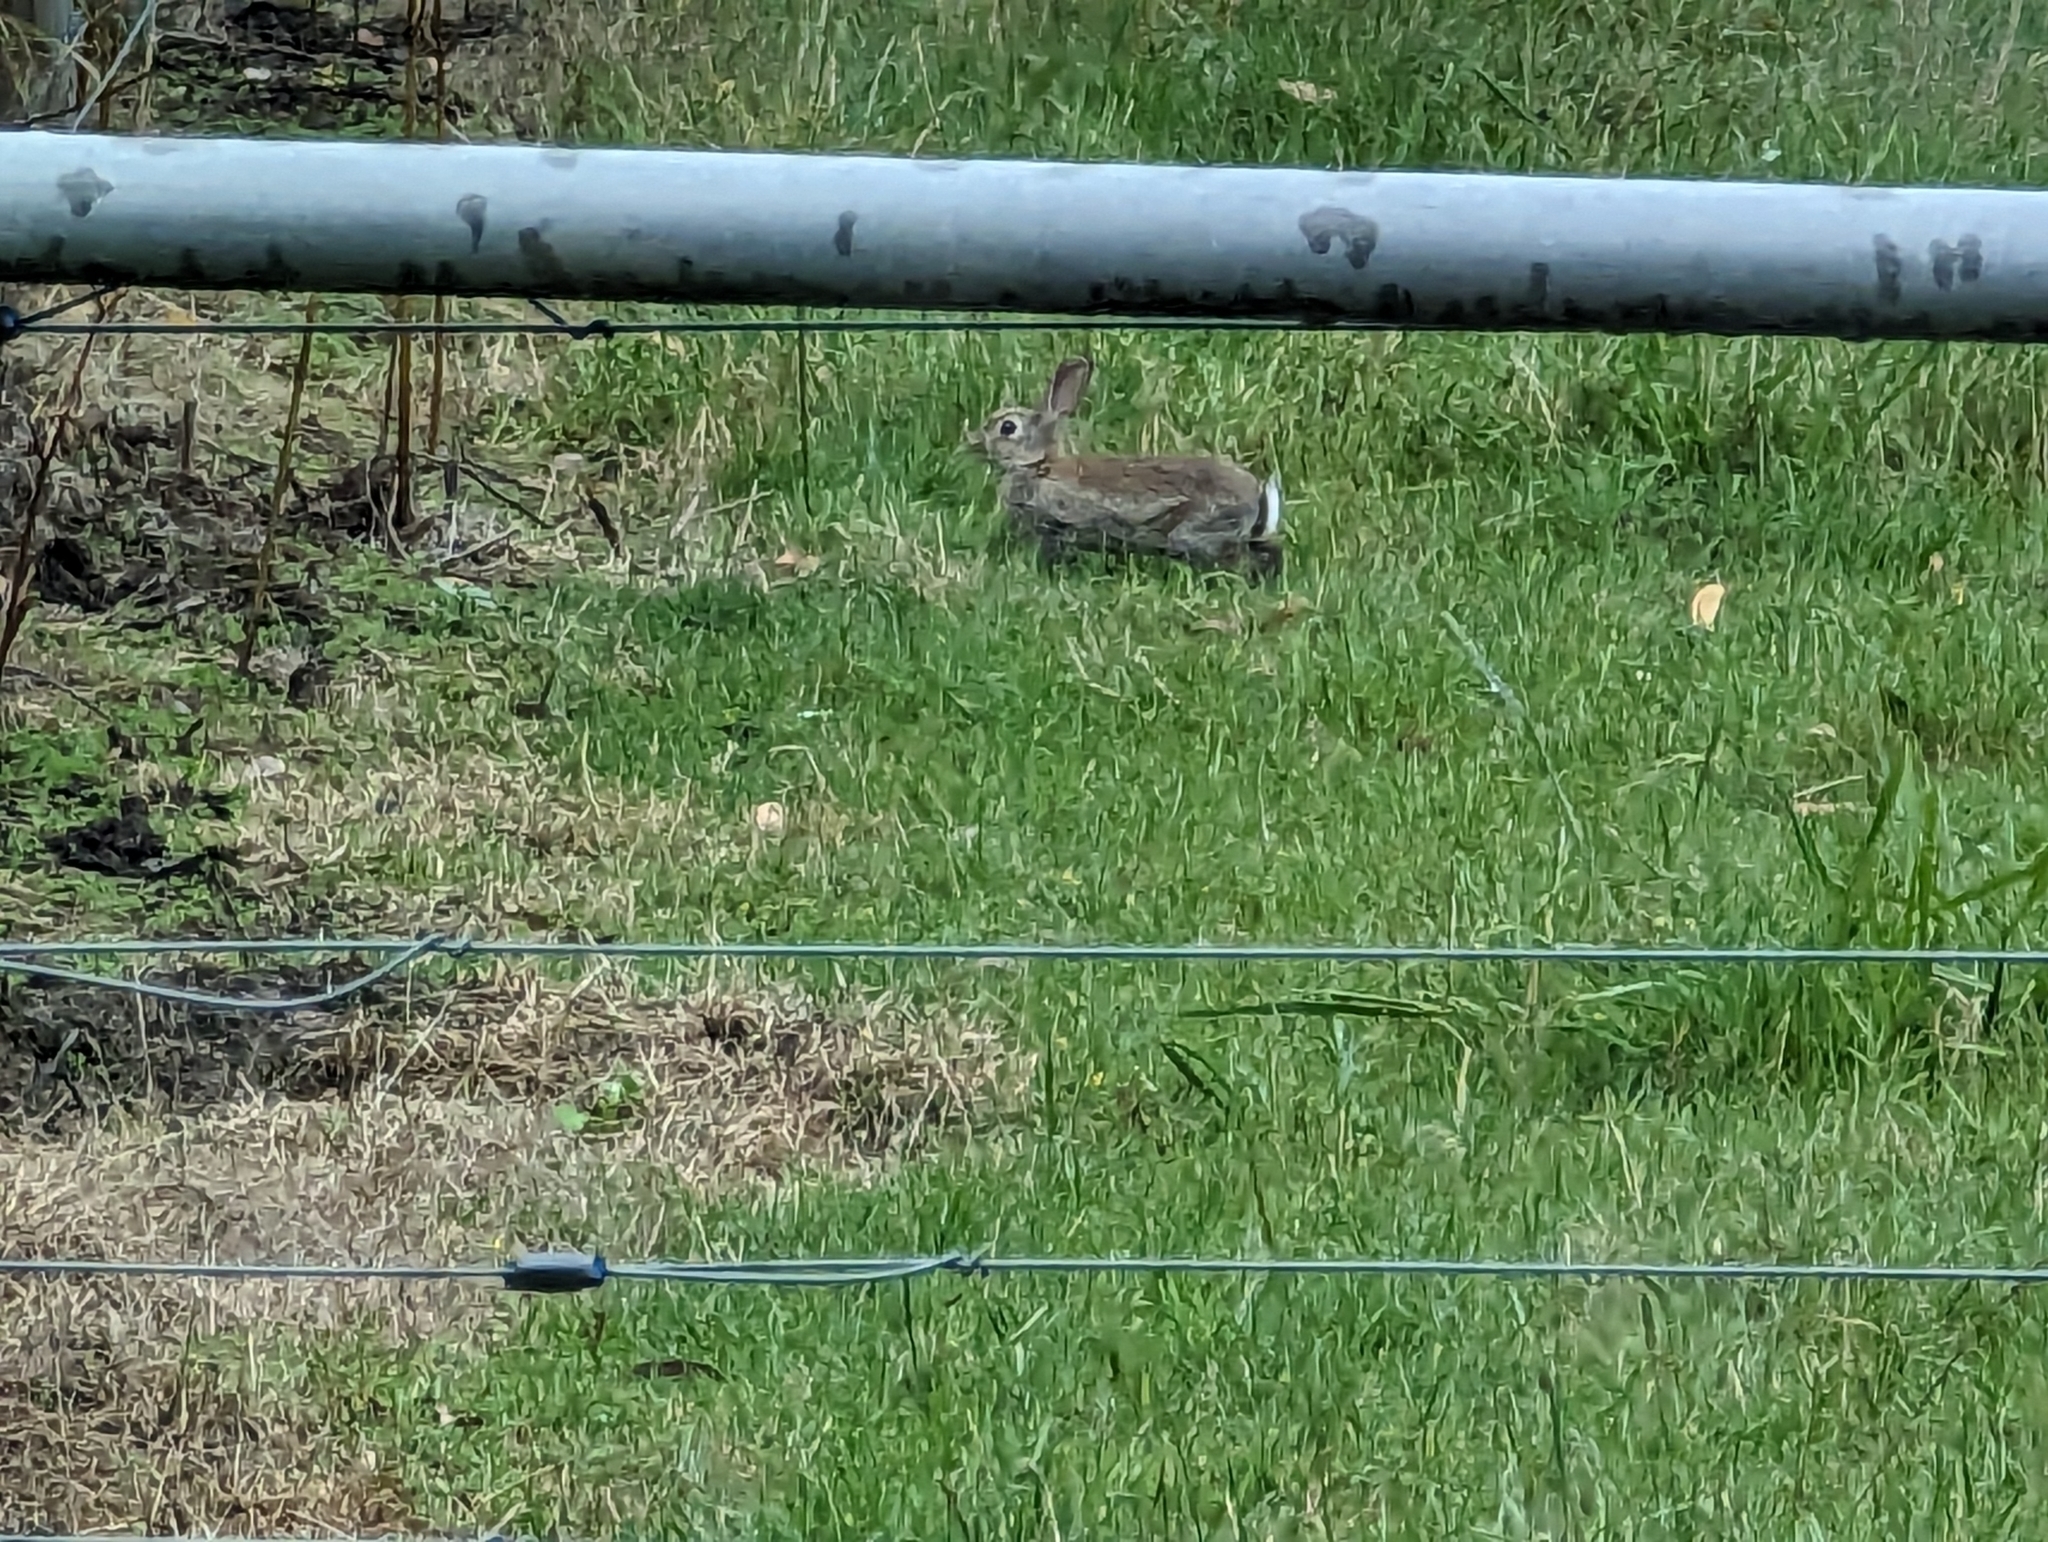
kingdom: Animalia
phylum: Chordata
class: Mammalia
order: Lagomorpha
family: Leporidae
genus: Oryctolagus
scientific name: Oryctolagus cuniculus
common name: European rabbit
